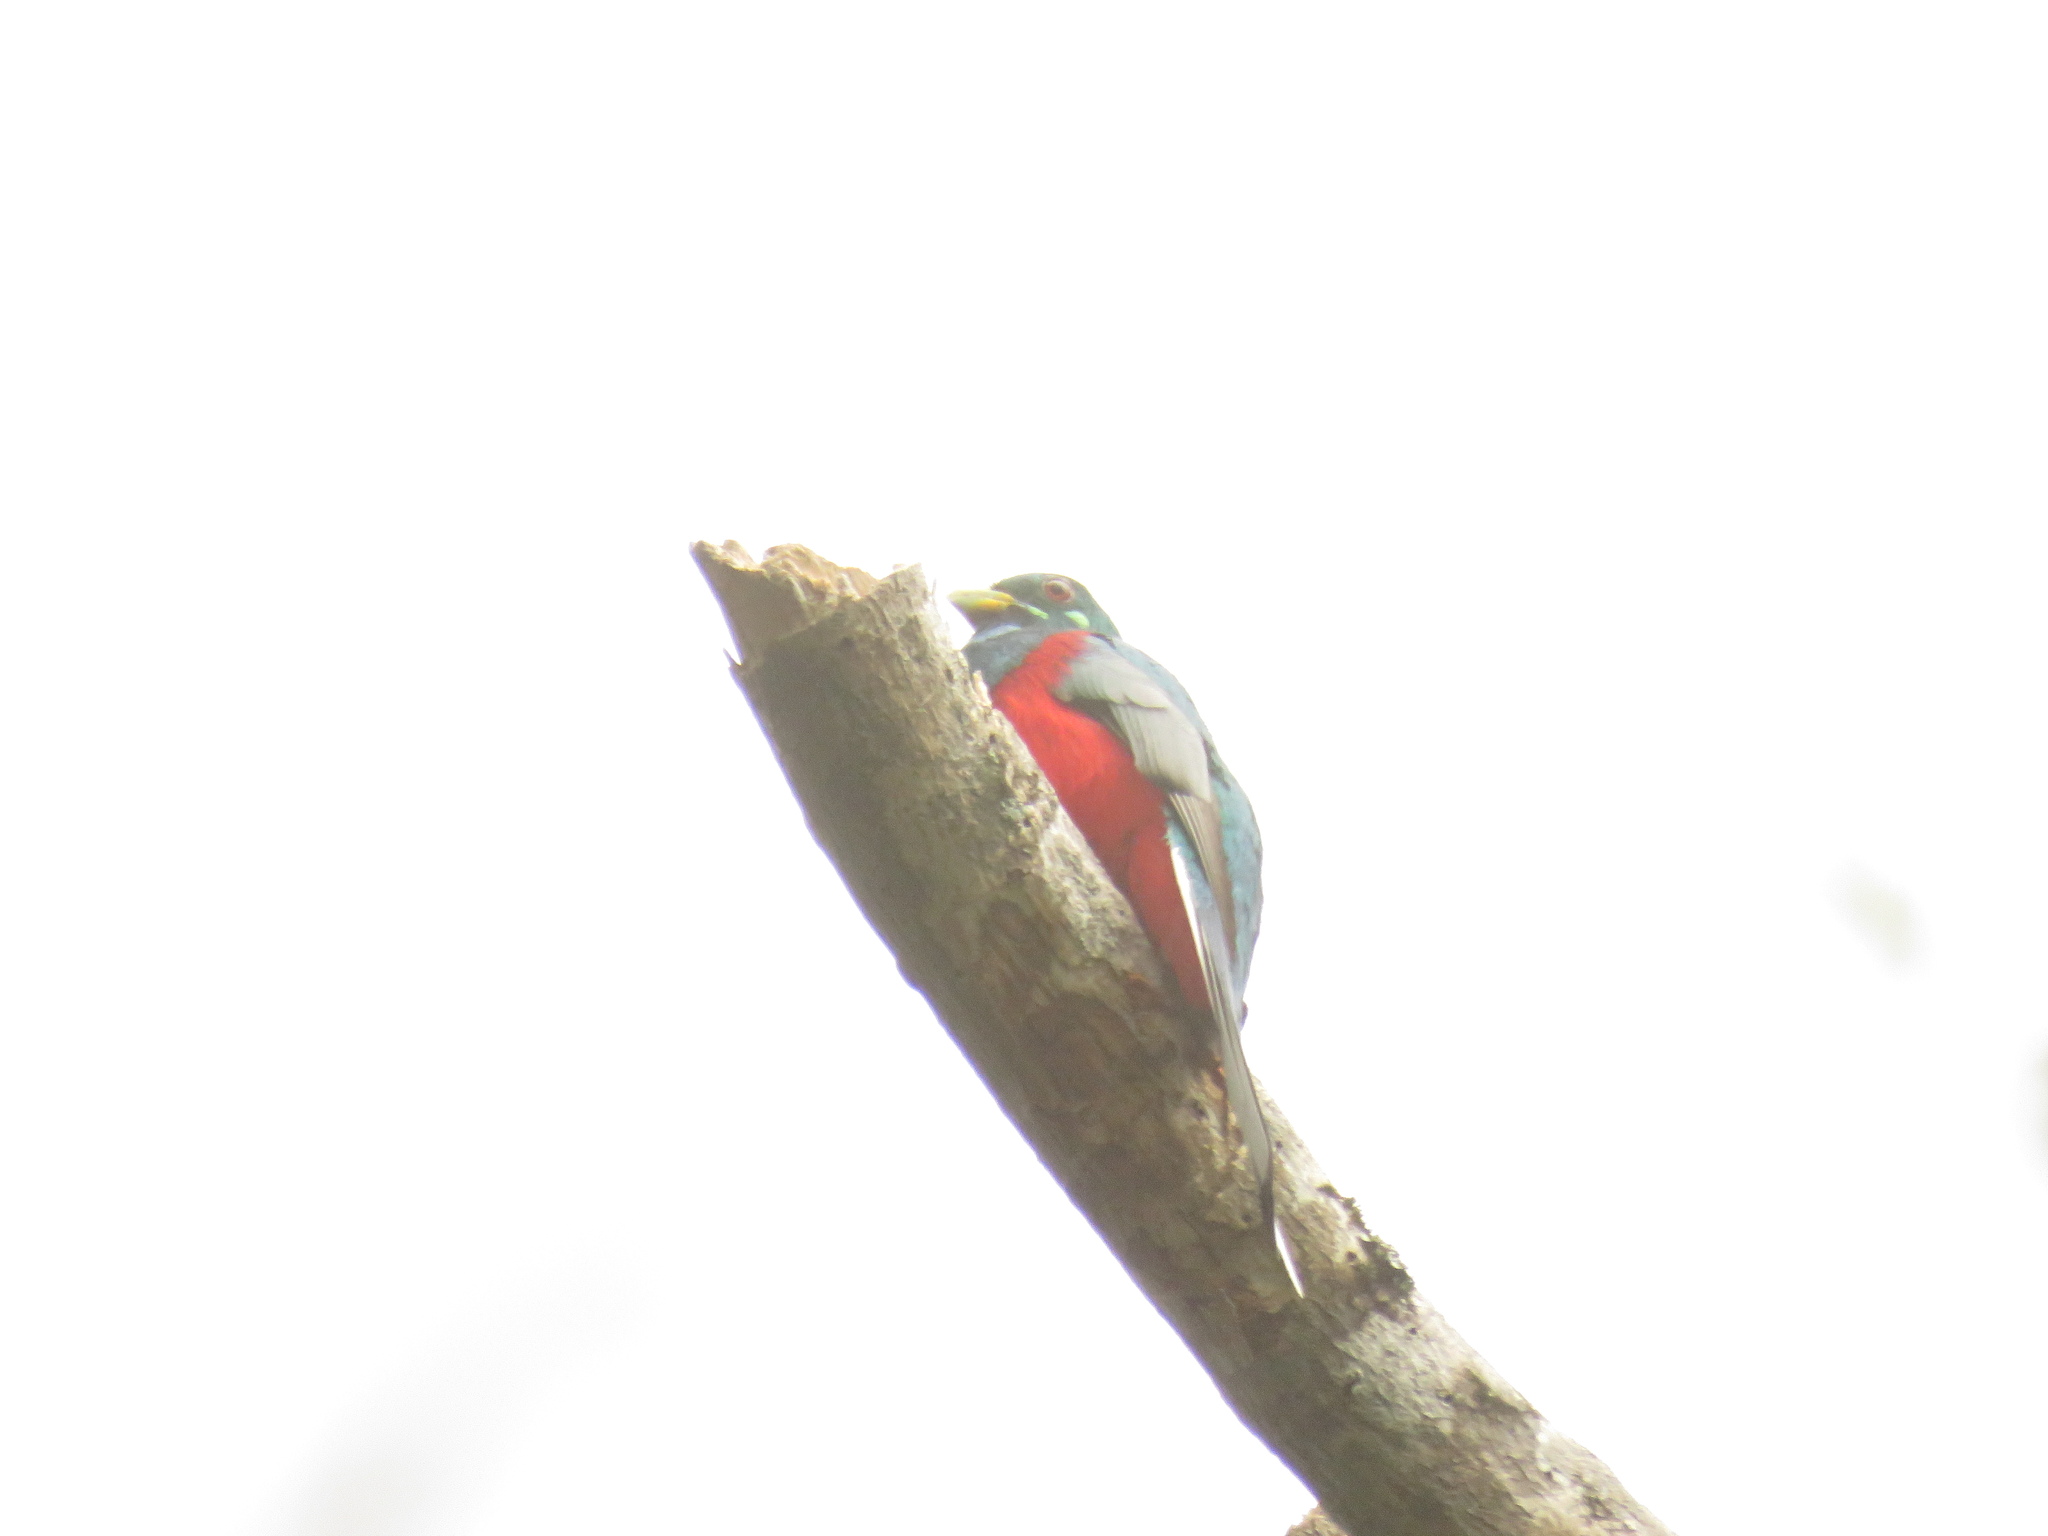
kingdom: Animalia
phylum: Chordata
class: Aves
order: Trogoniformes
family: Trogonidae
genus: Apaloderma
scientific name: Apaloderma narina
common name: Narina trogon
